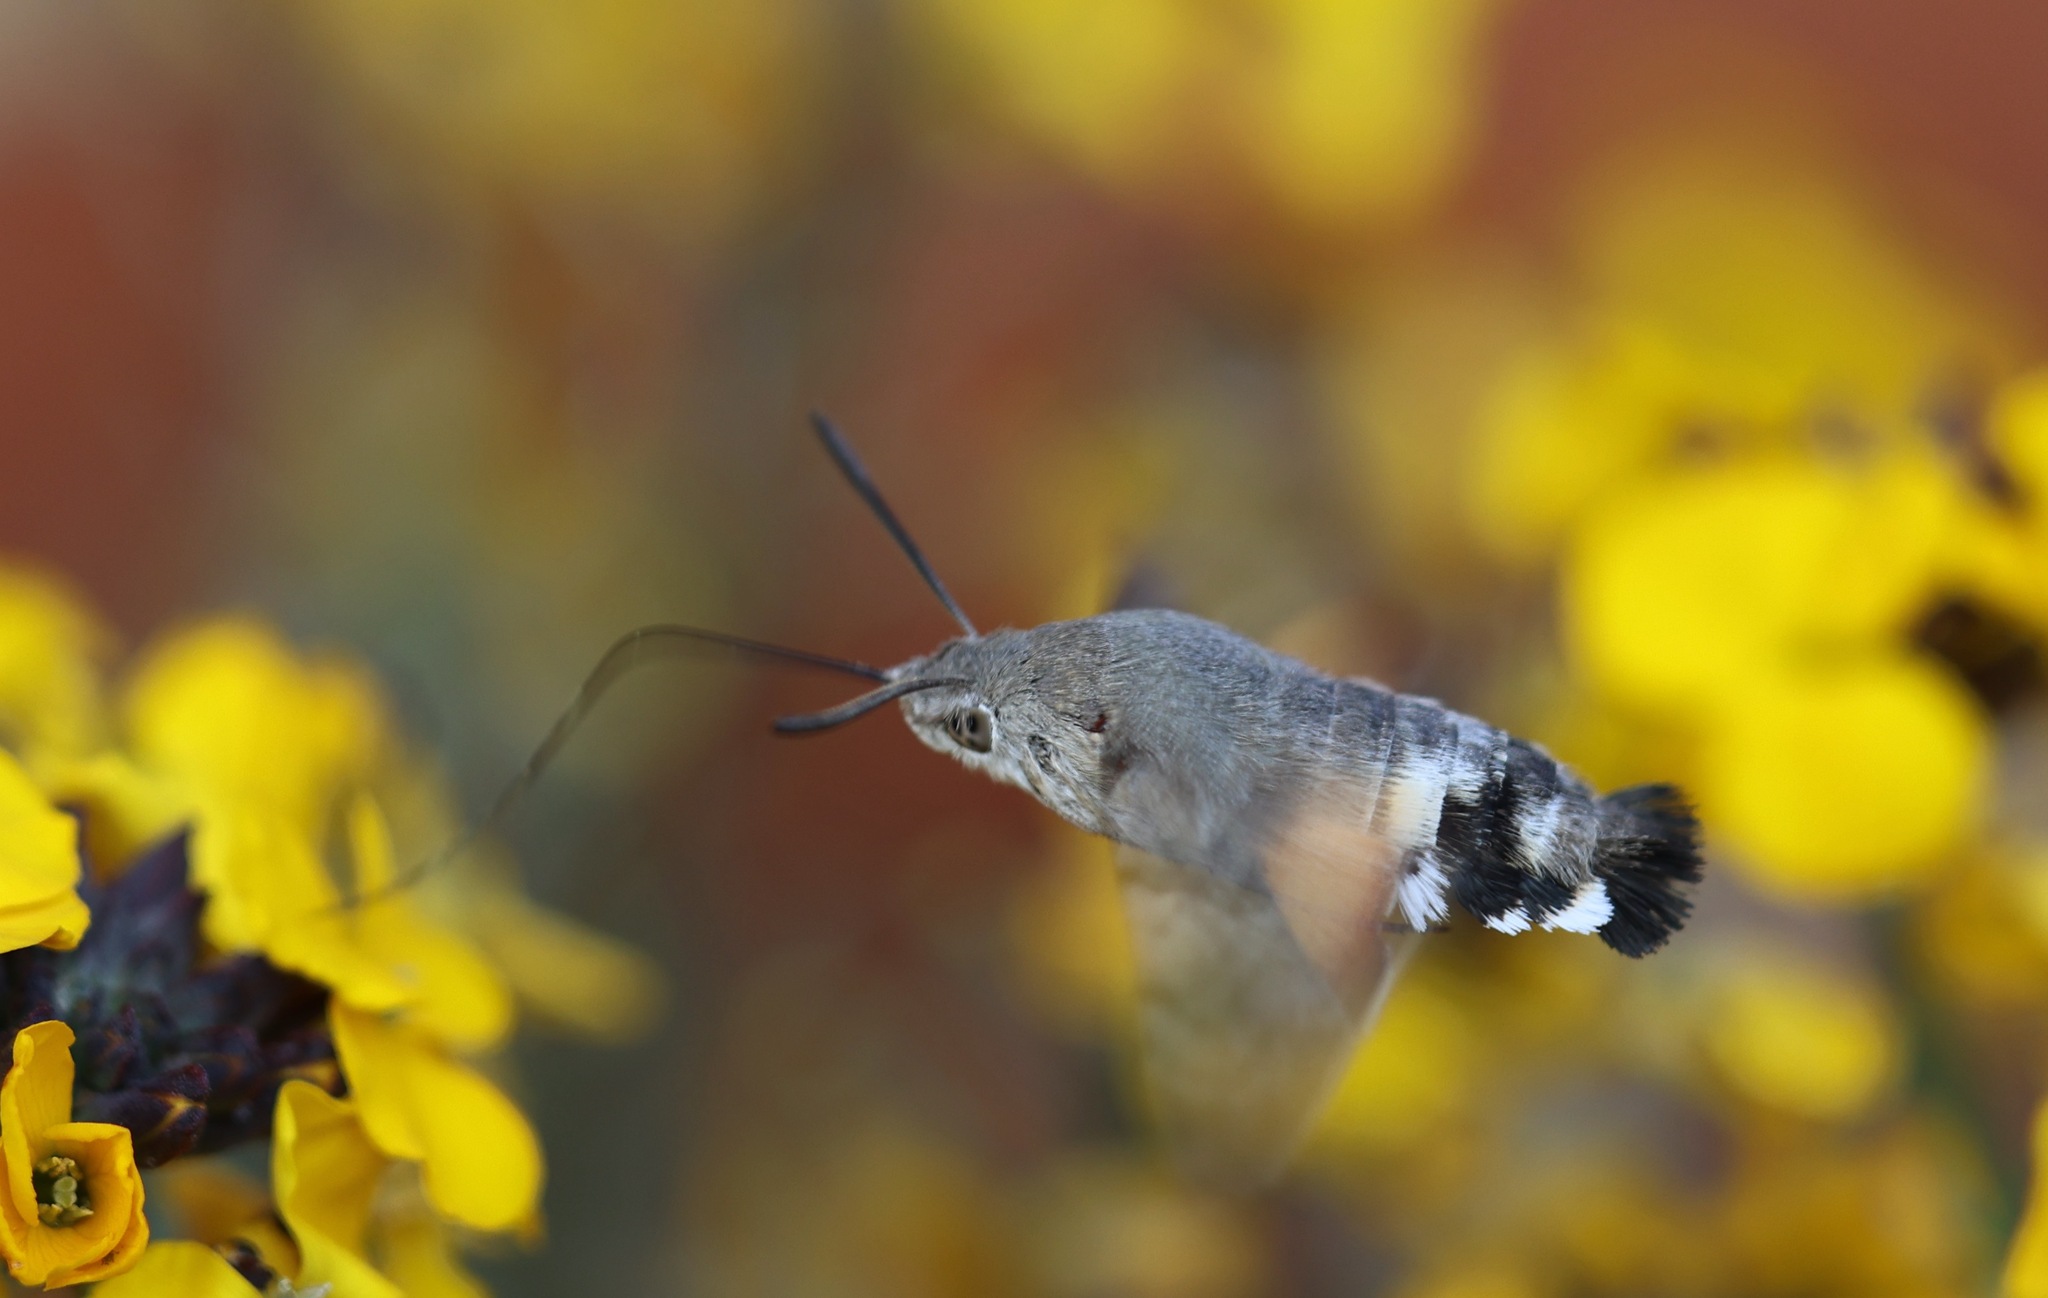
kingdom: Animalia
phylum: Arthropoda
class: Insecta
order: Lepidoptera
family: Sphingidae
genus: Macroglossum
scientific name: Macroglossum stellatarum
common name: Humming-bird hawk-moth
